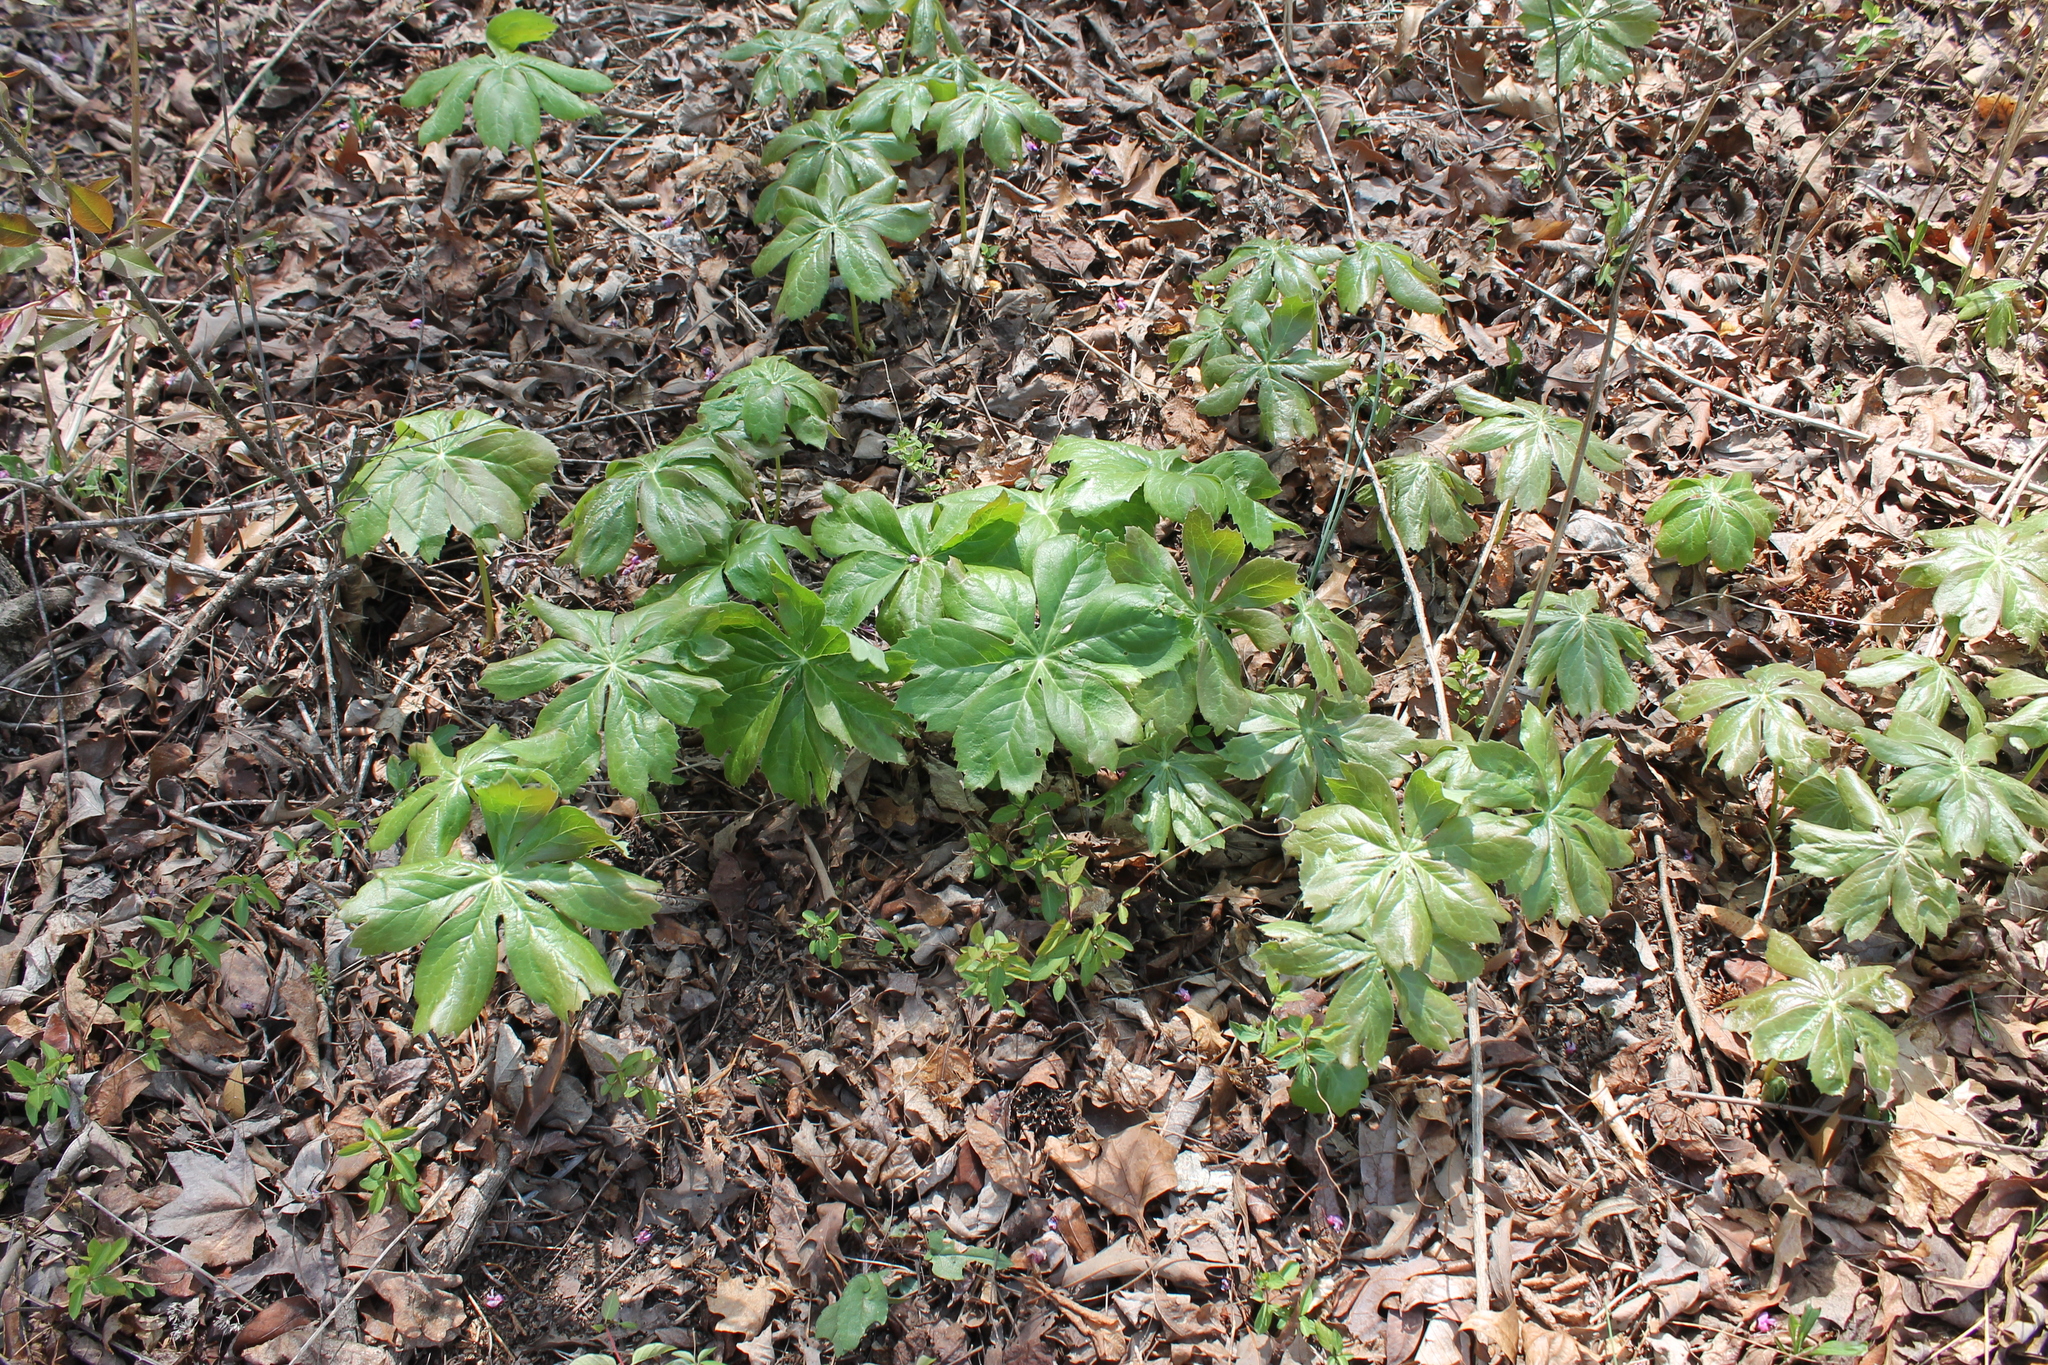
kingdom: Plantae
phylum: Tracheophyta
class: Magnoliopsida
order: Ranunculales
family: Berberidaceae
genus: Podophyllum
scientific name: Podophyllum peltatum
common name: Wild mandrake
